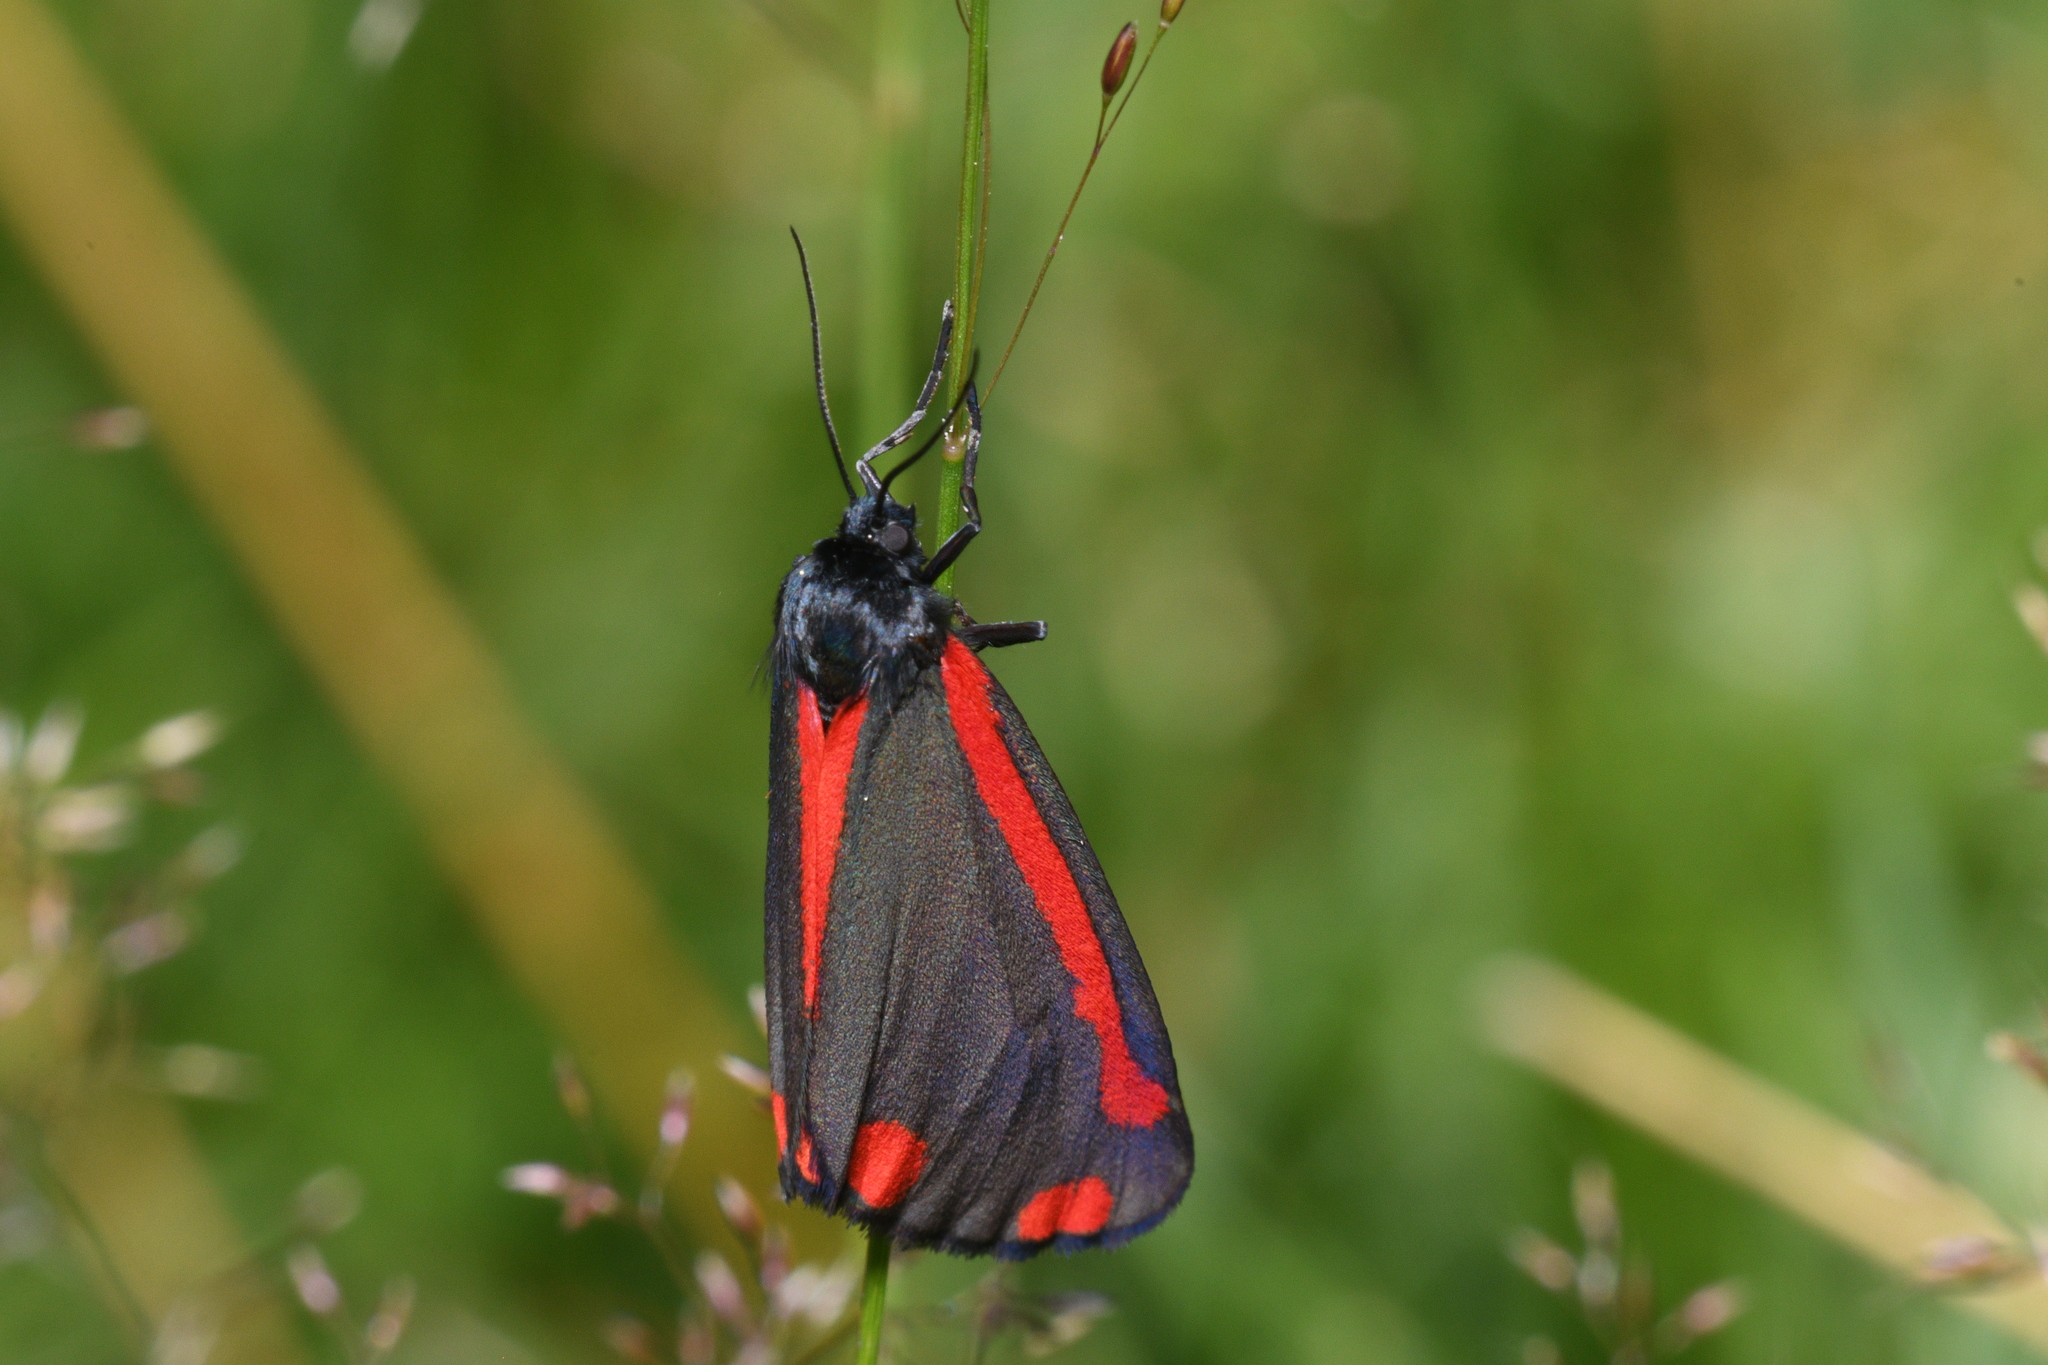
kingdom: Animalia
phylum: Arthropoda
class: Insecta
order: Lepidoptera
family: Erebidae
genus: Tyria
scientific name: Tyria jacobaeae
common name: Cinnabar
